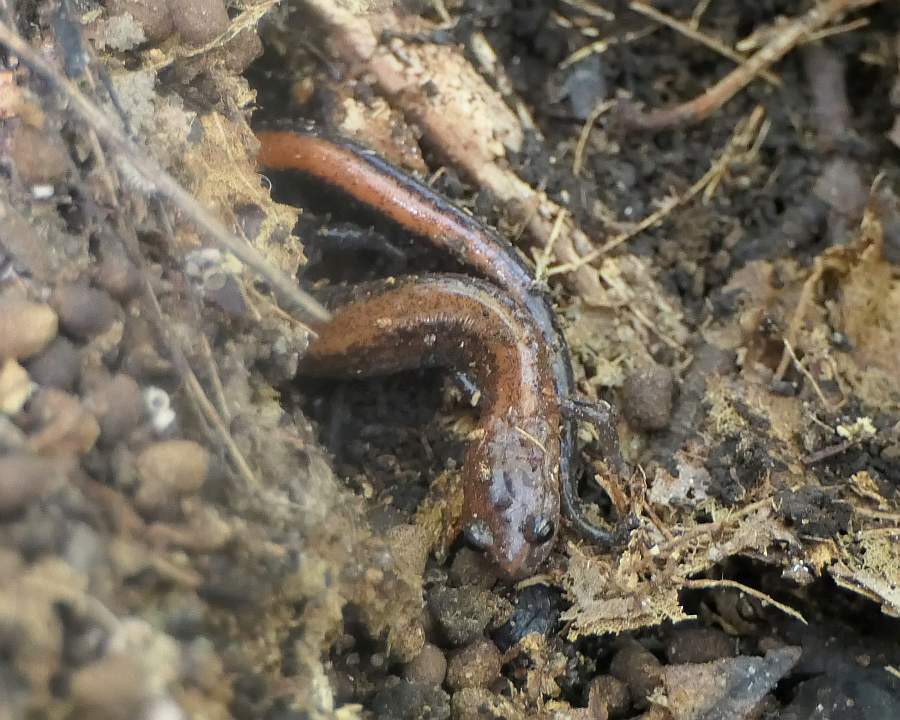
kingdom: Animalia
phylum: Chordata
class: Amphibia
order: Caudata
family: Plethodontidae
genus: Plethodon
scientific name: Plethodon cinereus
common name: Redback salamander
